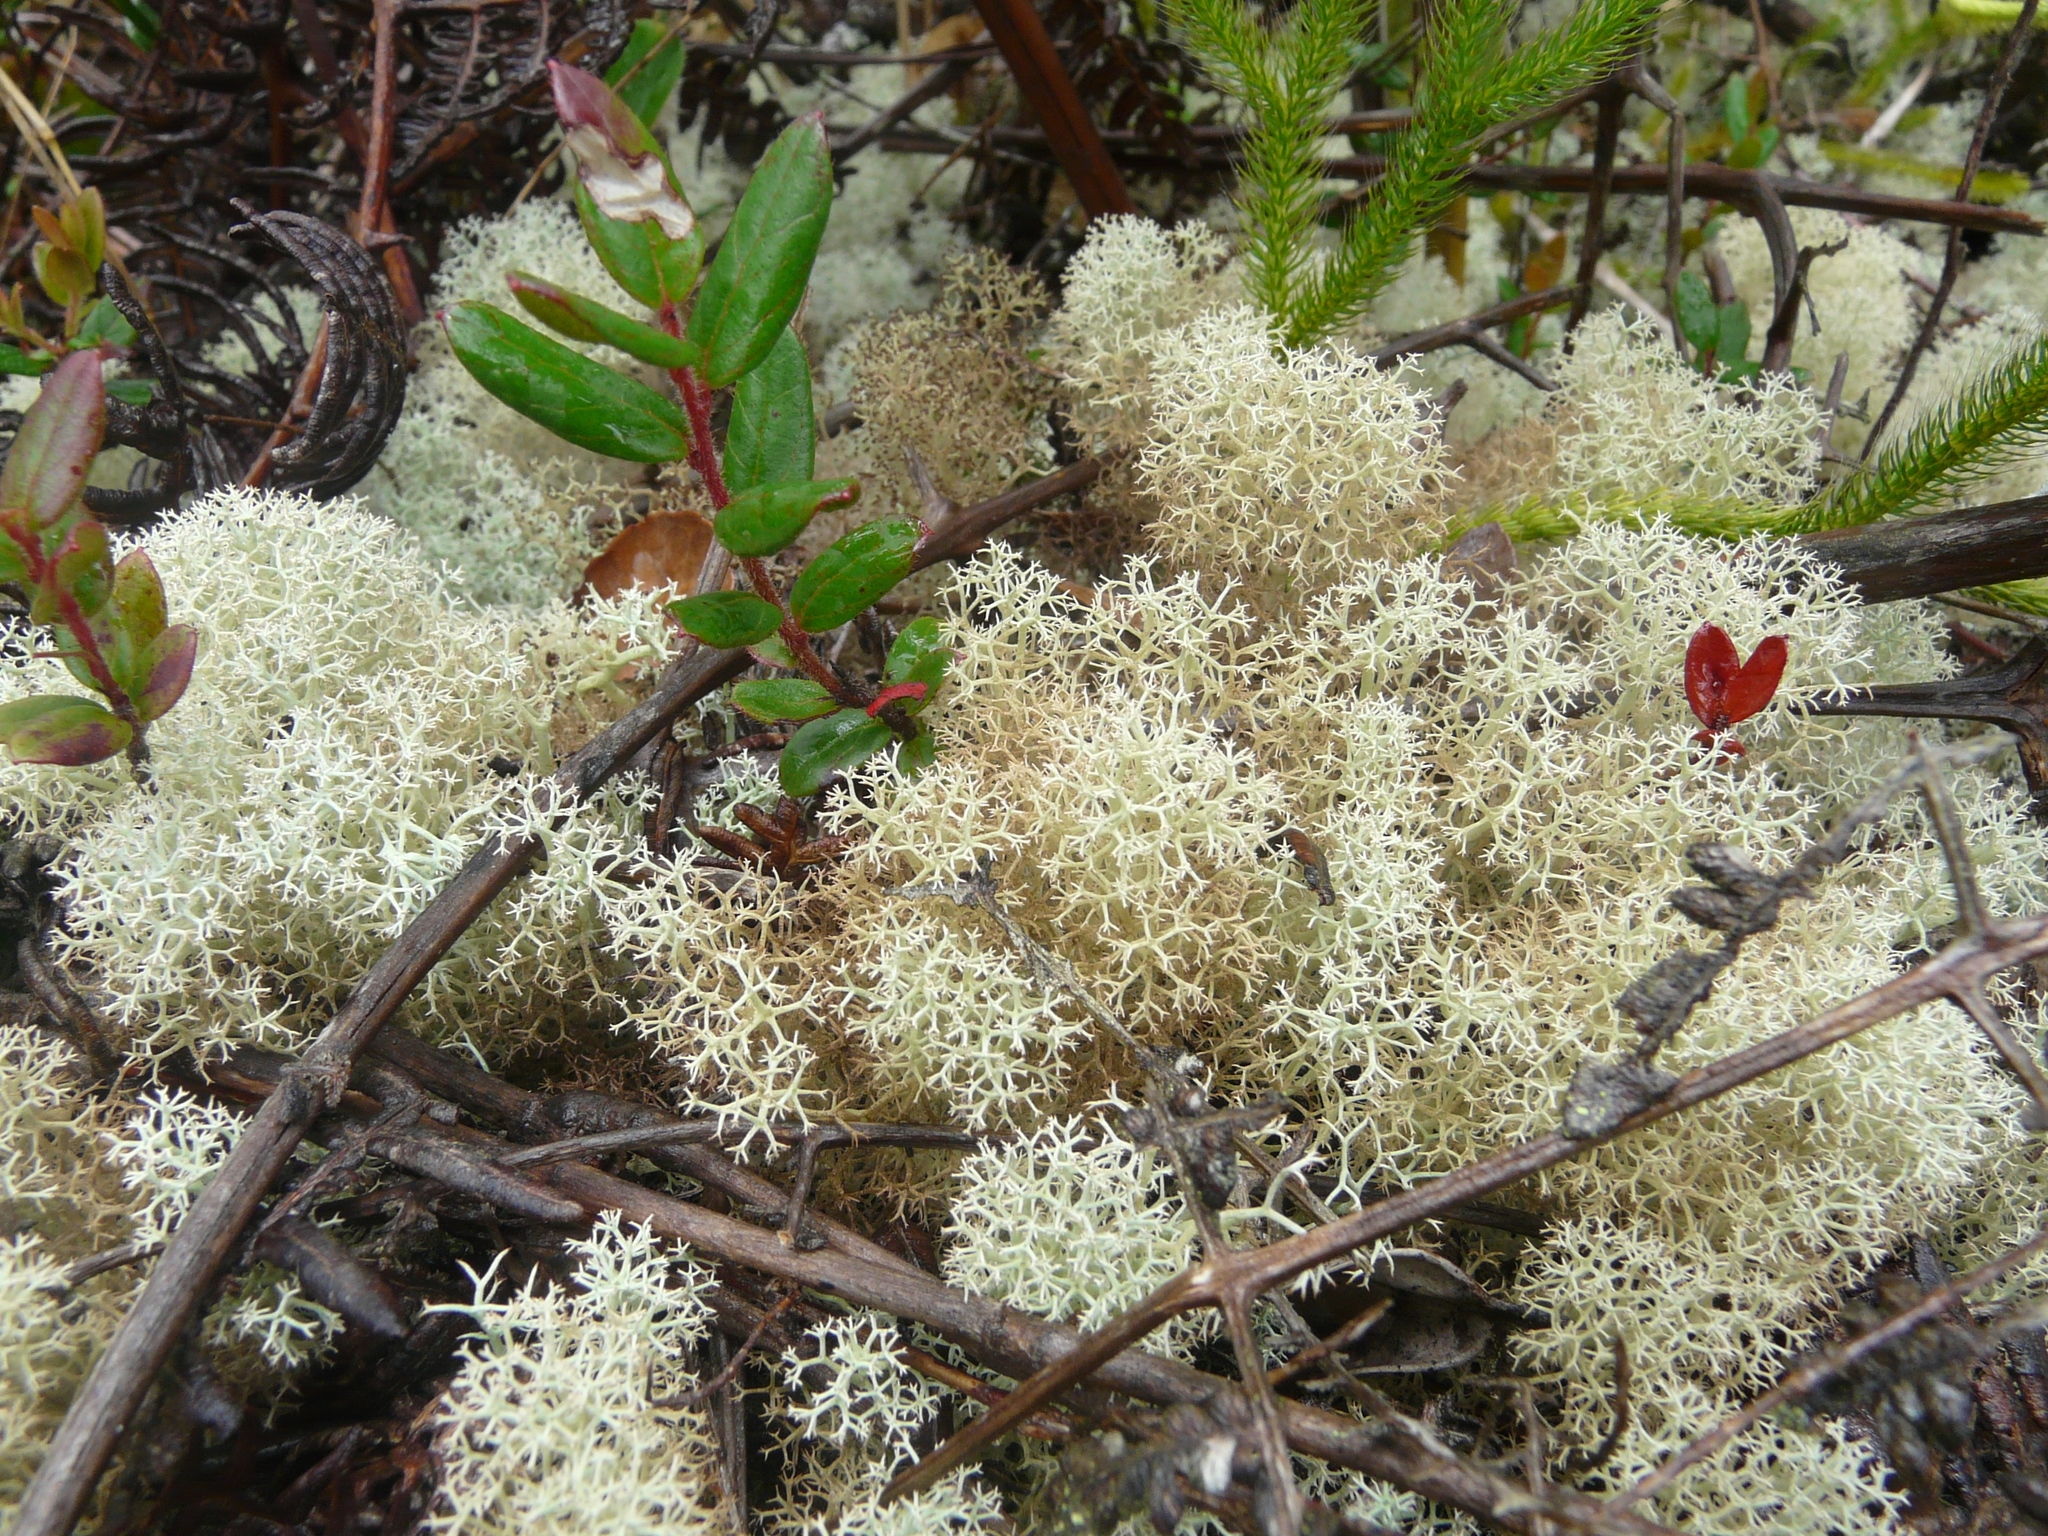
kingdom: Fungi
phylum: Ascomycota
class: Lecanoromycetes
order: Lecanorales
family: Cladoniaceae
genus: Cladonia
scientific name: Cladonia confusa
